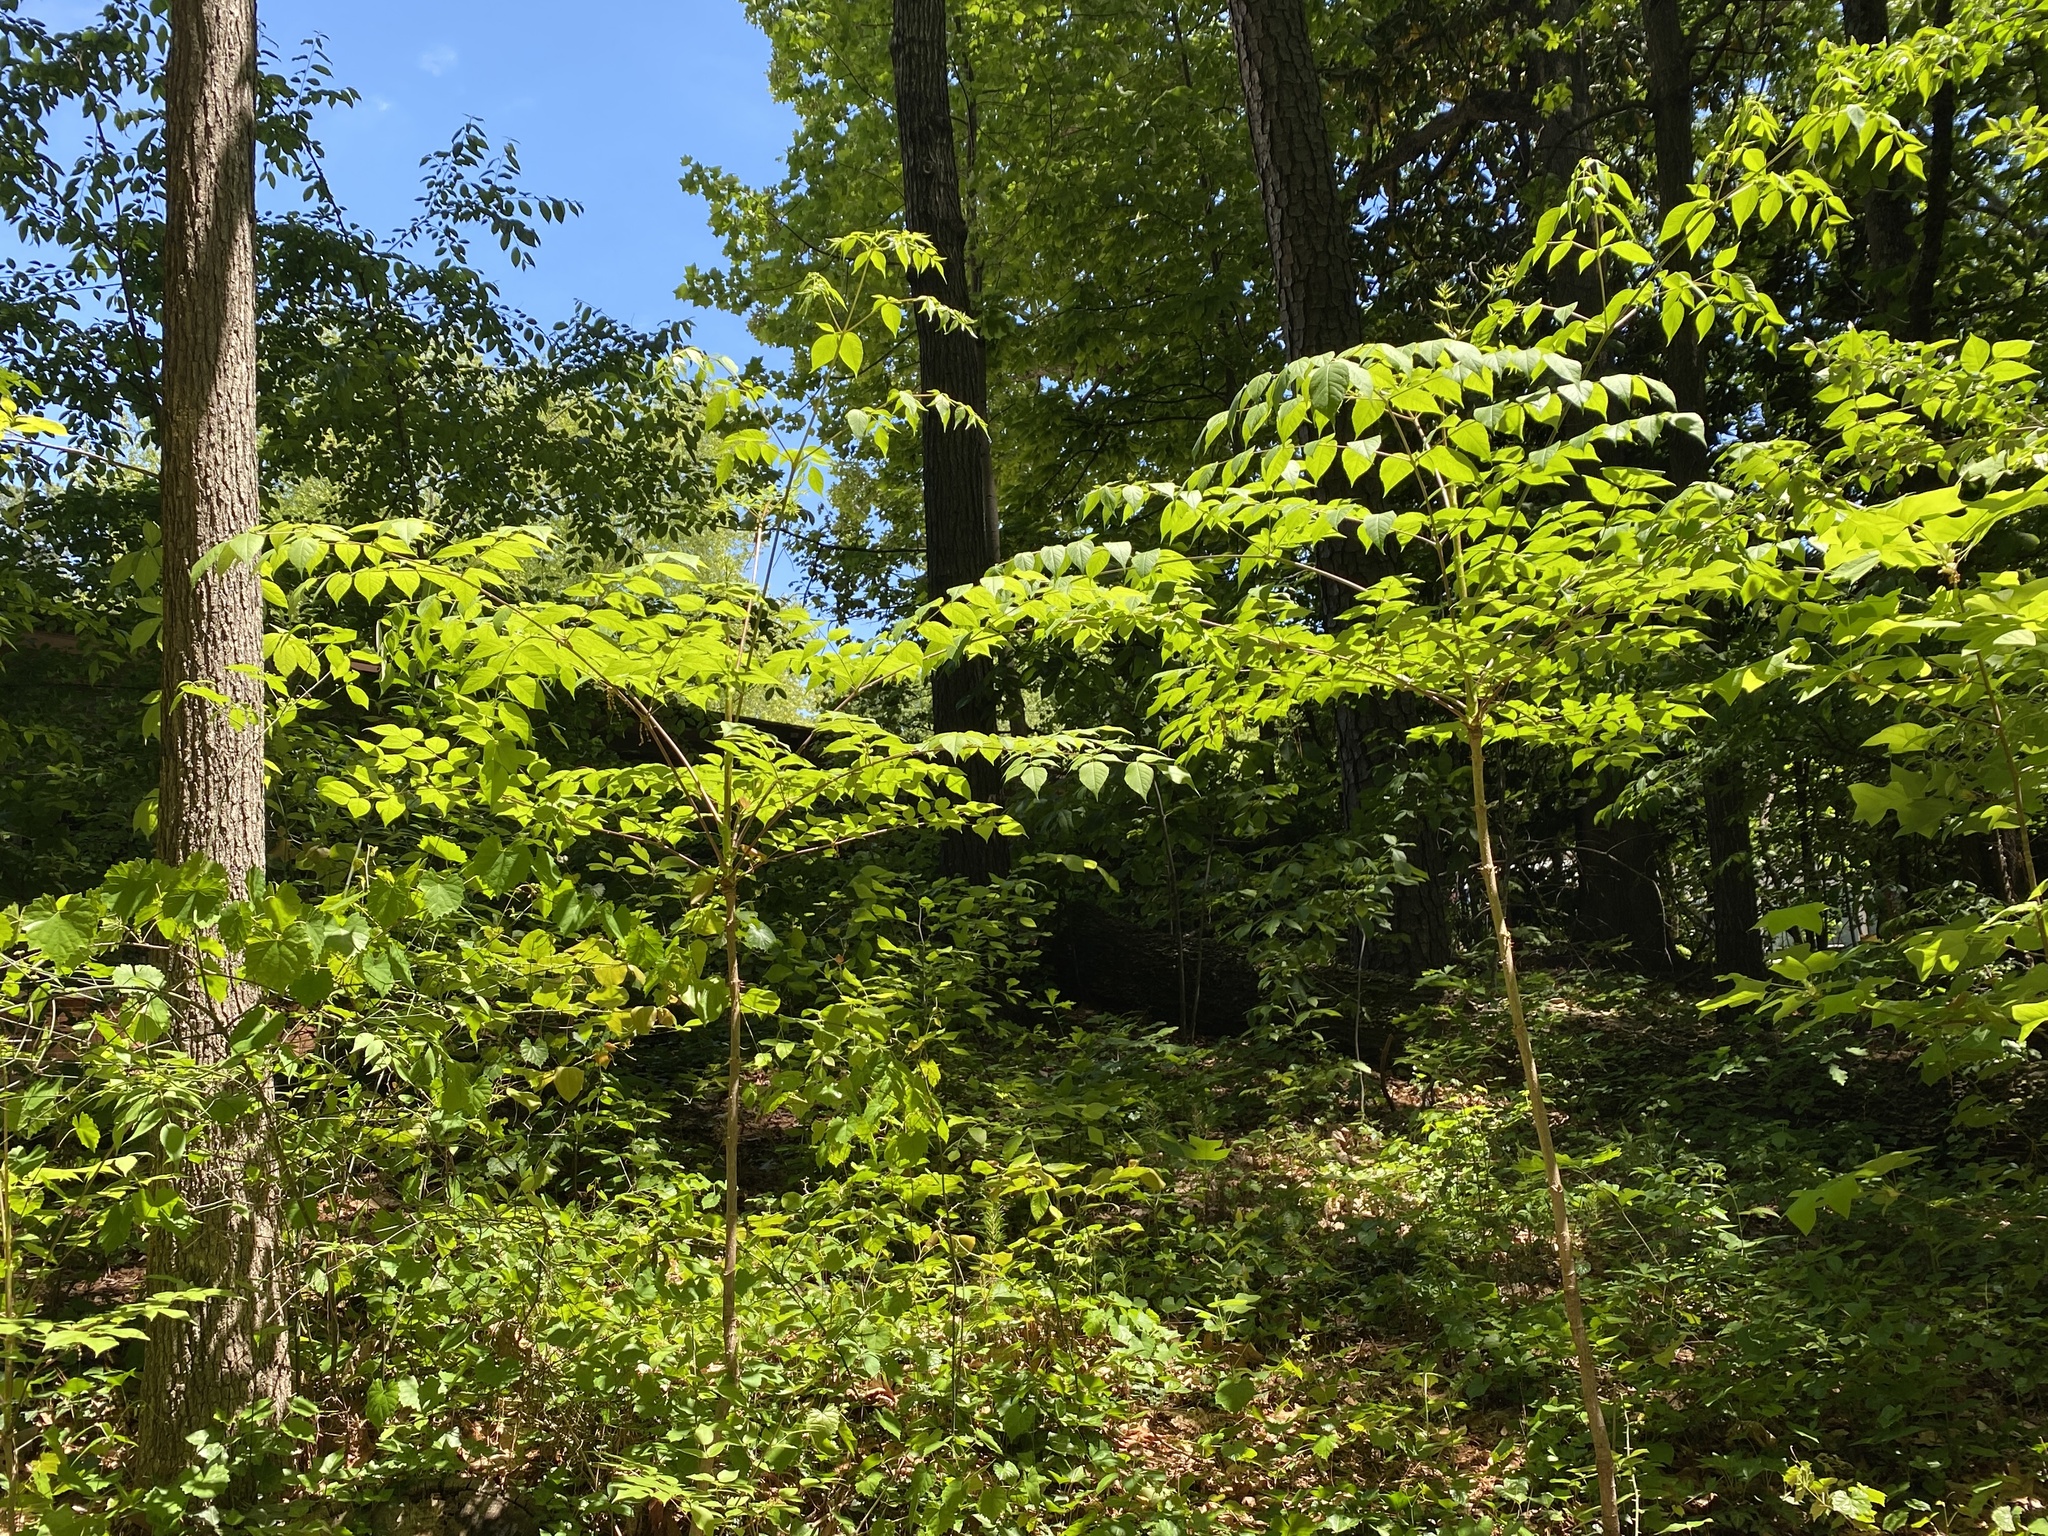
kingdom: Plantae
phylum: Tracheophyta
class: Magnoliopsida
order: Apiales
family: Araliaceae
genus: Aralia
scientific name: Aralia spinosa
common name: Hercules'-club
